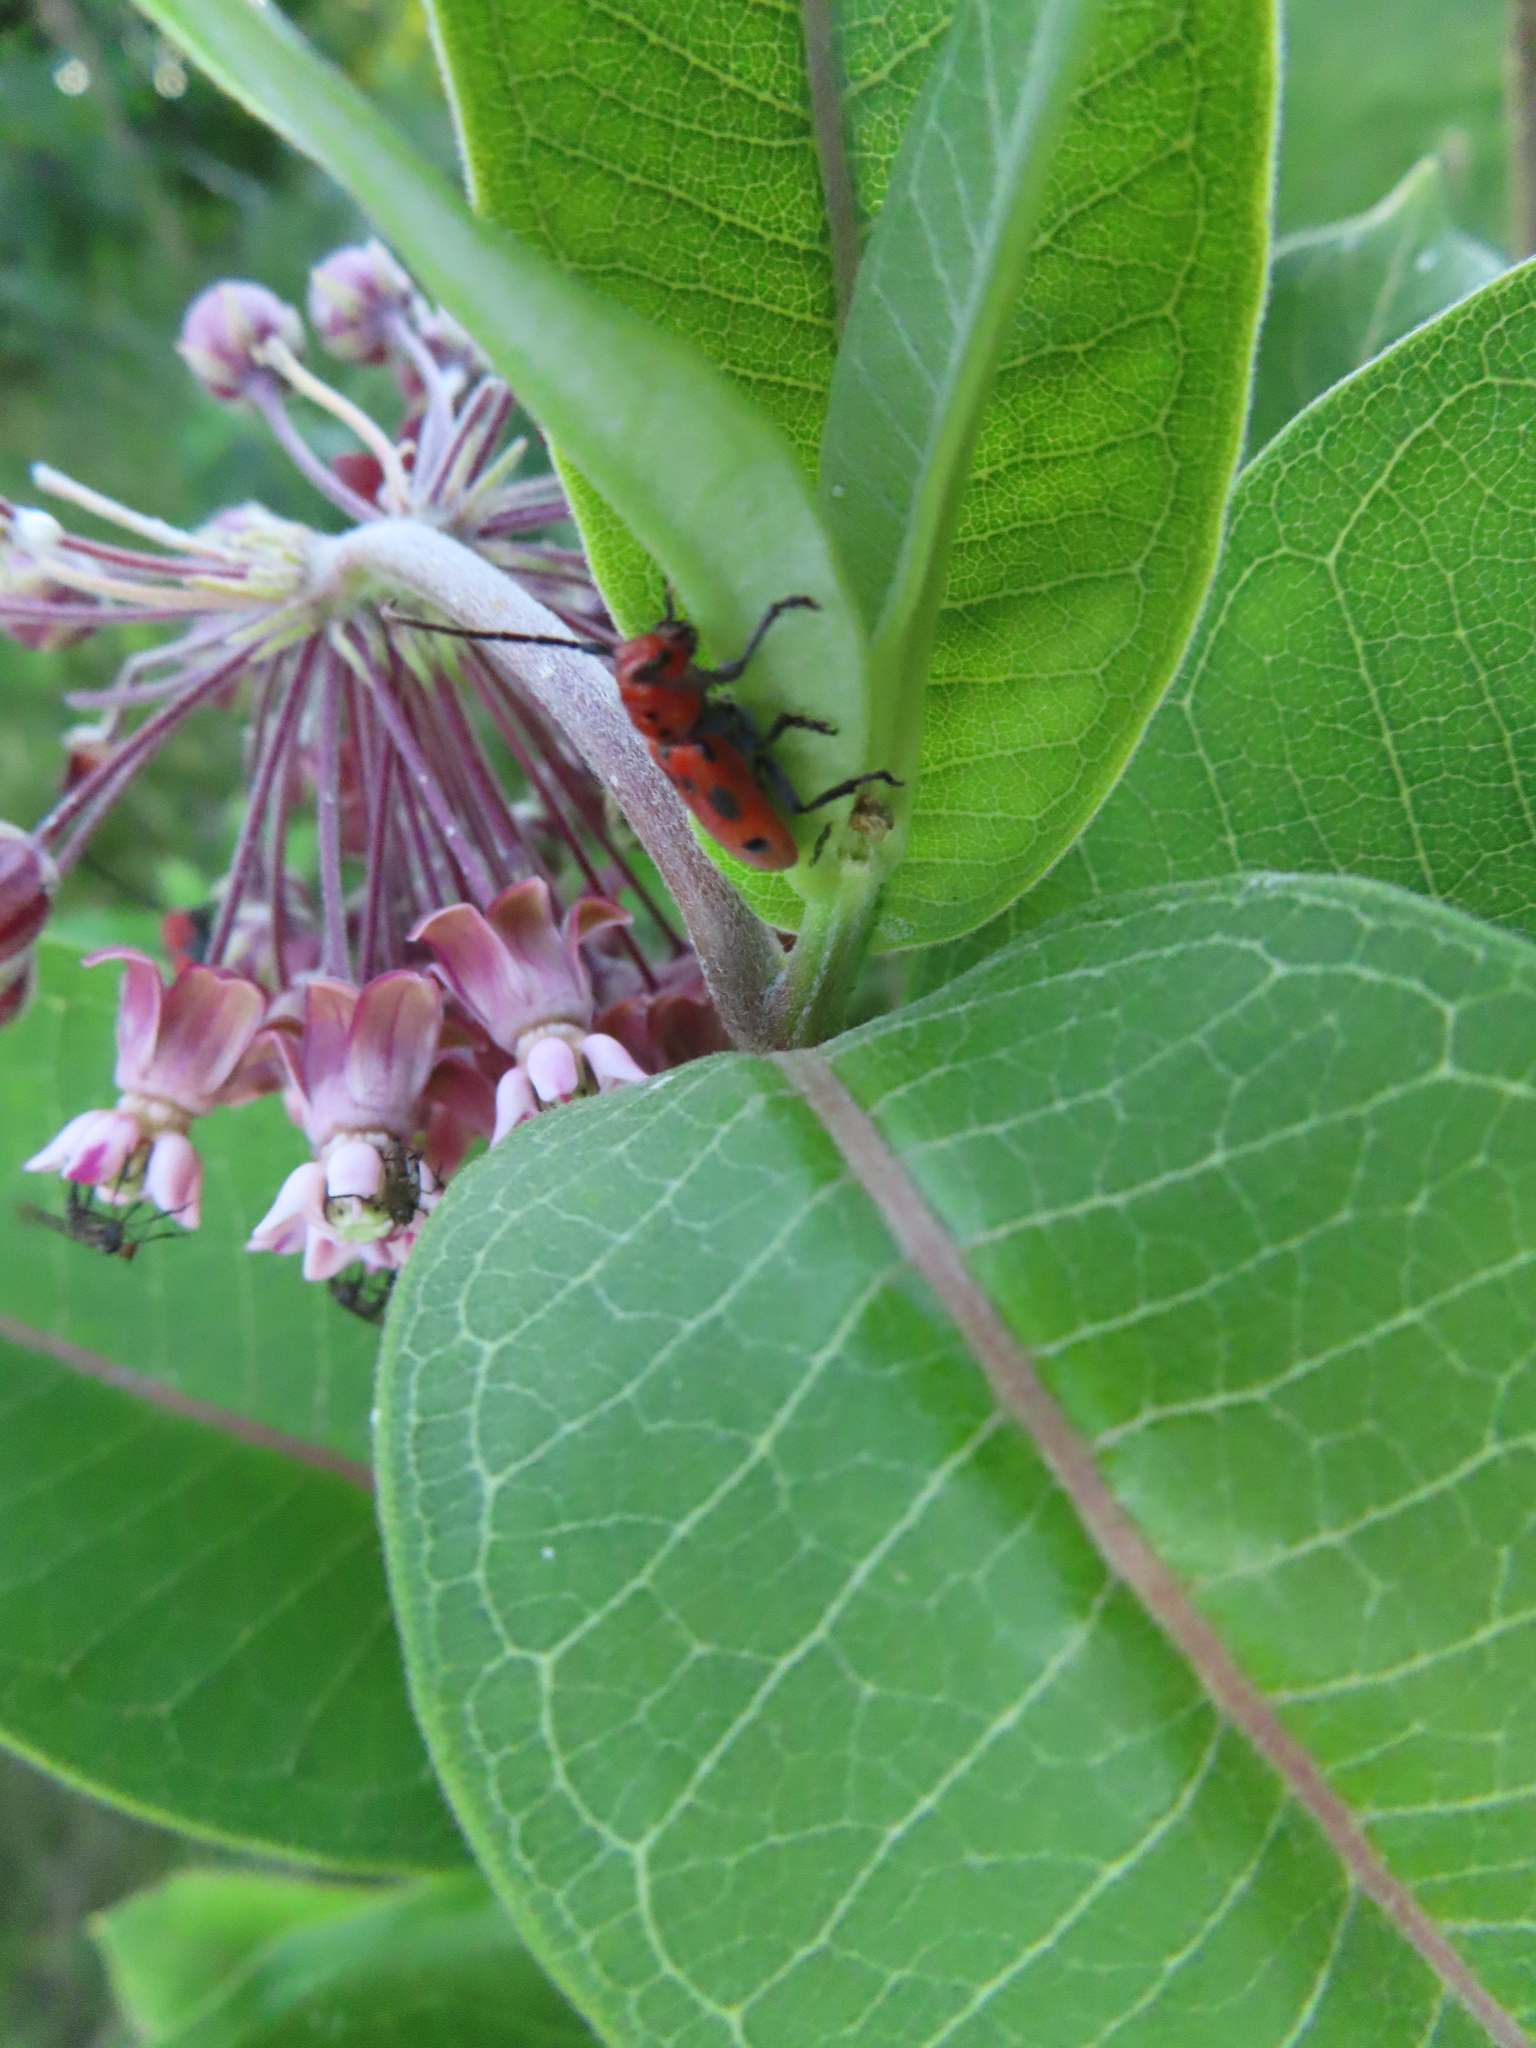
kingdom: Animalia
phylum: Arthropoda
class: Insecta
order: Coleoptera
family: Cerambycidae
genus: Tetraopes
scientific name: Tetraopes tetrophthalmus
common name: Red milkweed beetle
